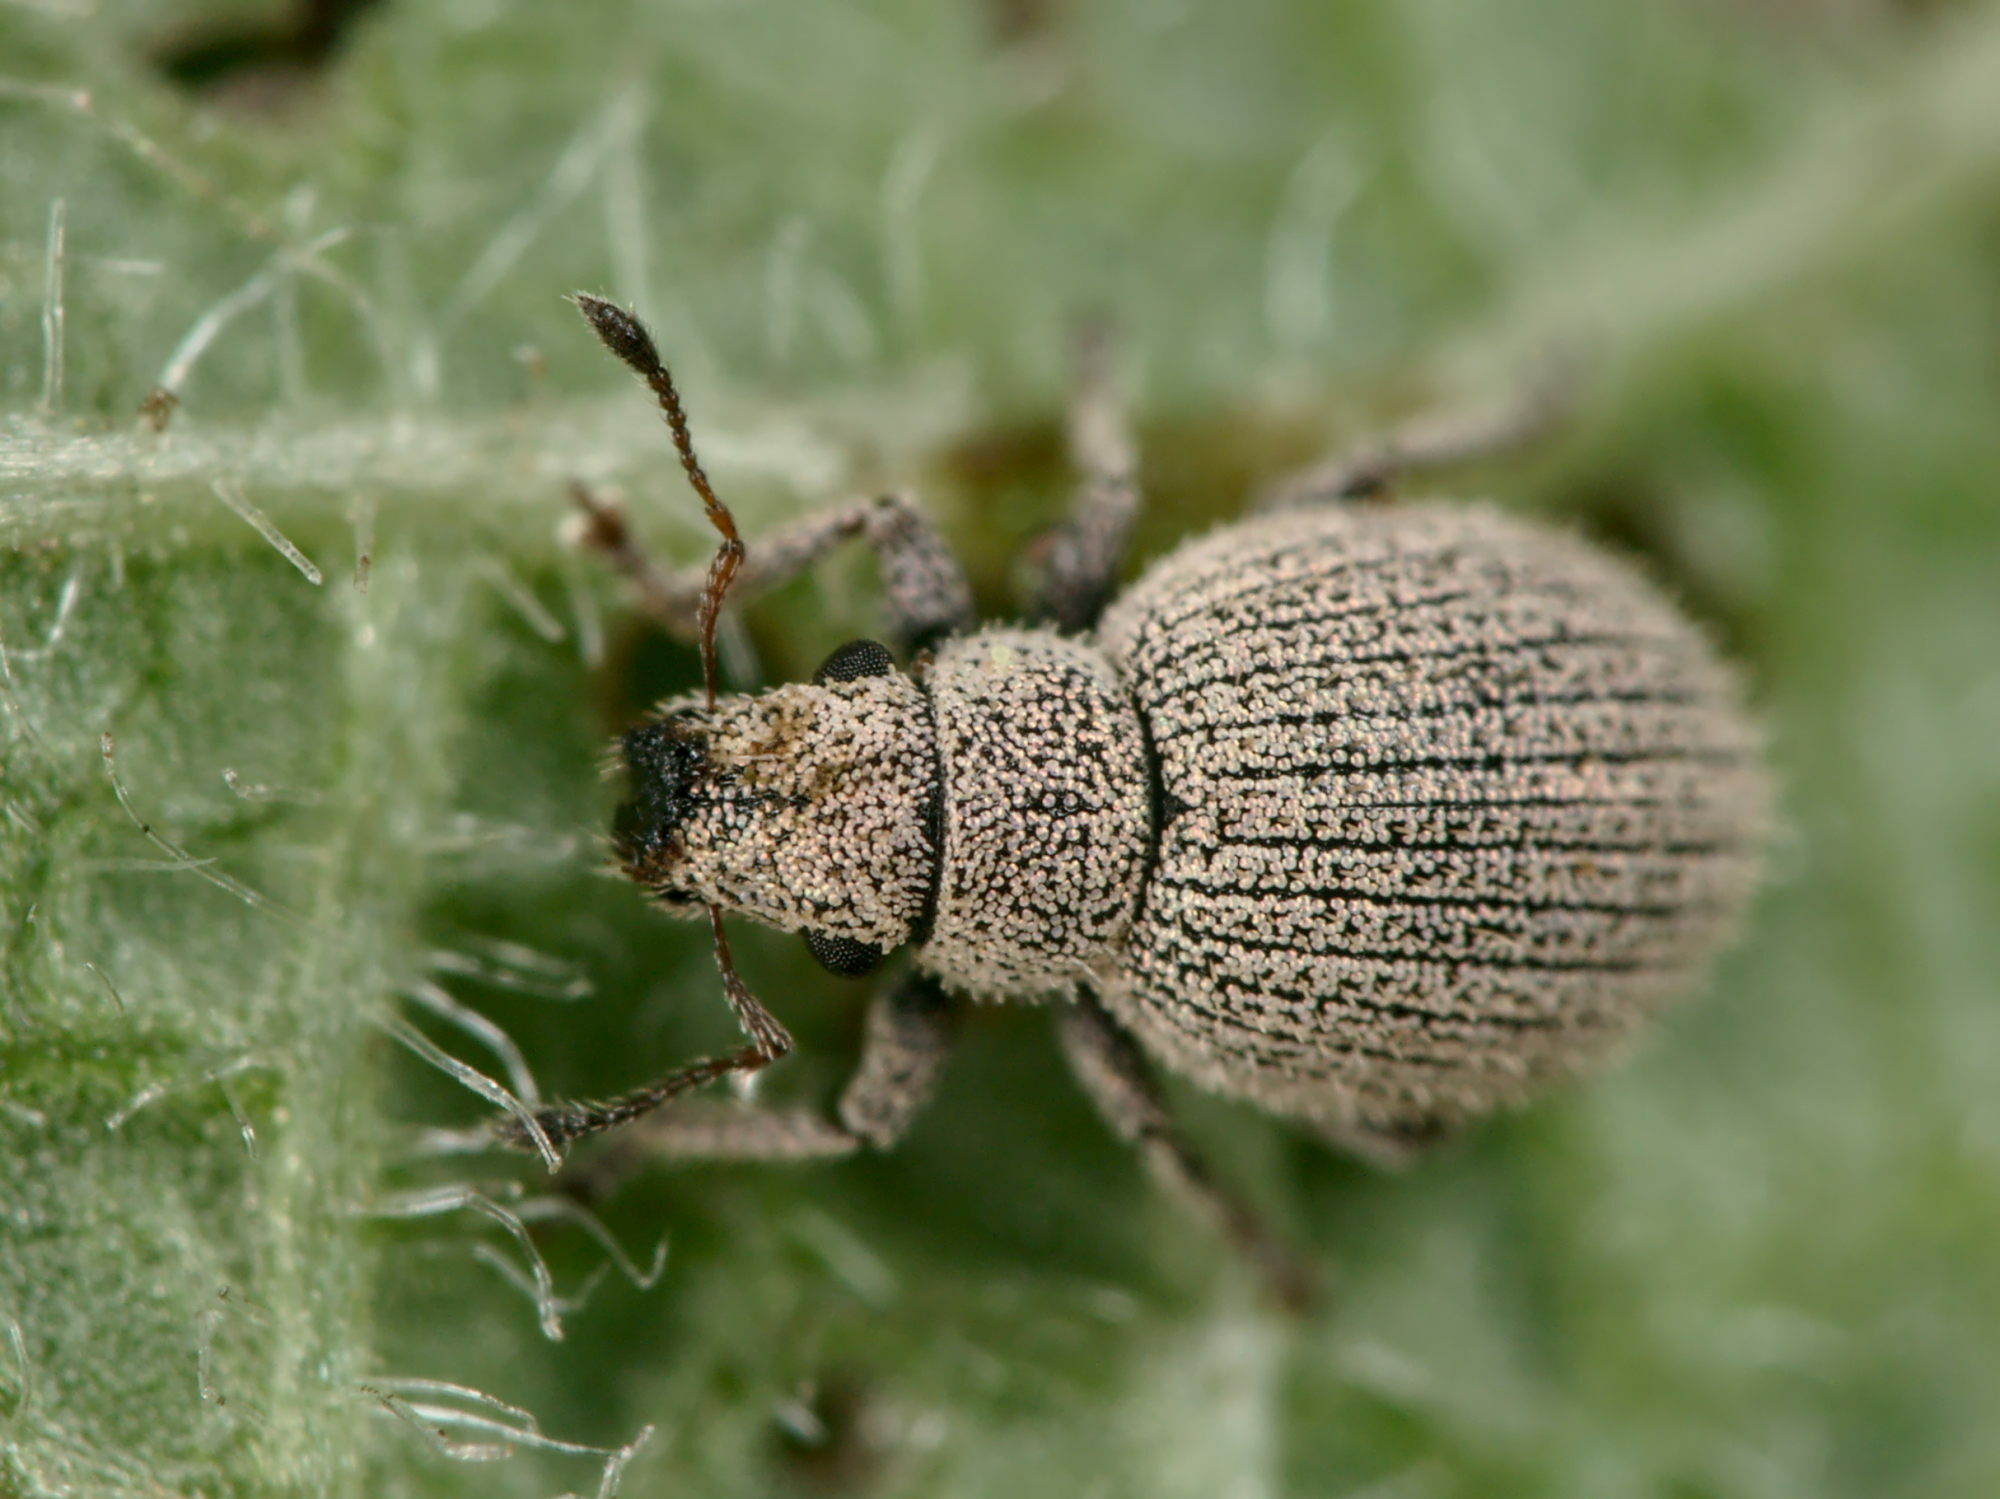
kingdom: Animalia
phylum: Arthropoda
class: Insecta
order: Coleoptera
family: Curculionidae
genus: Foucartia
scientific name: Foucartia squamulata
